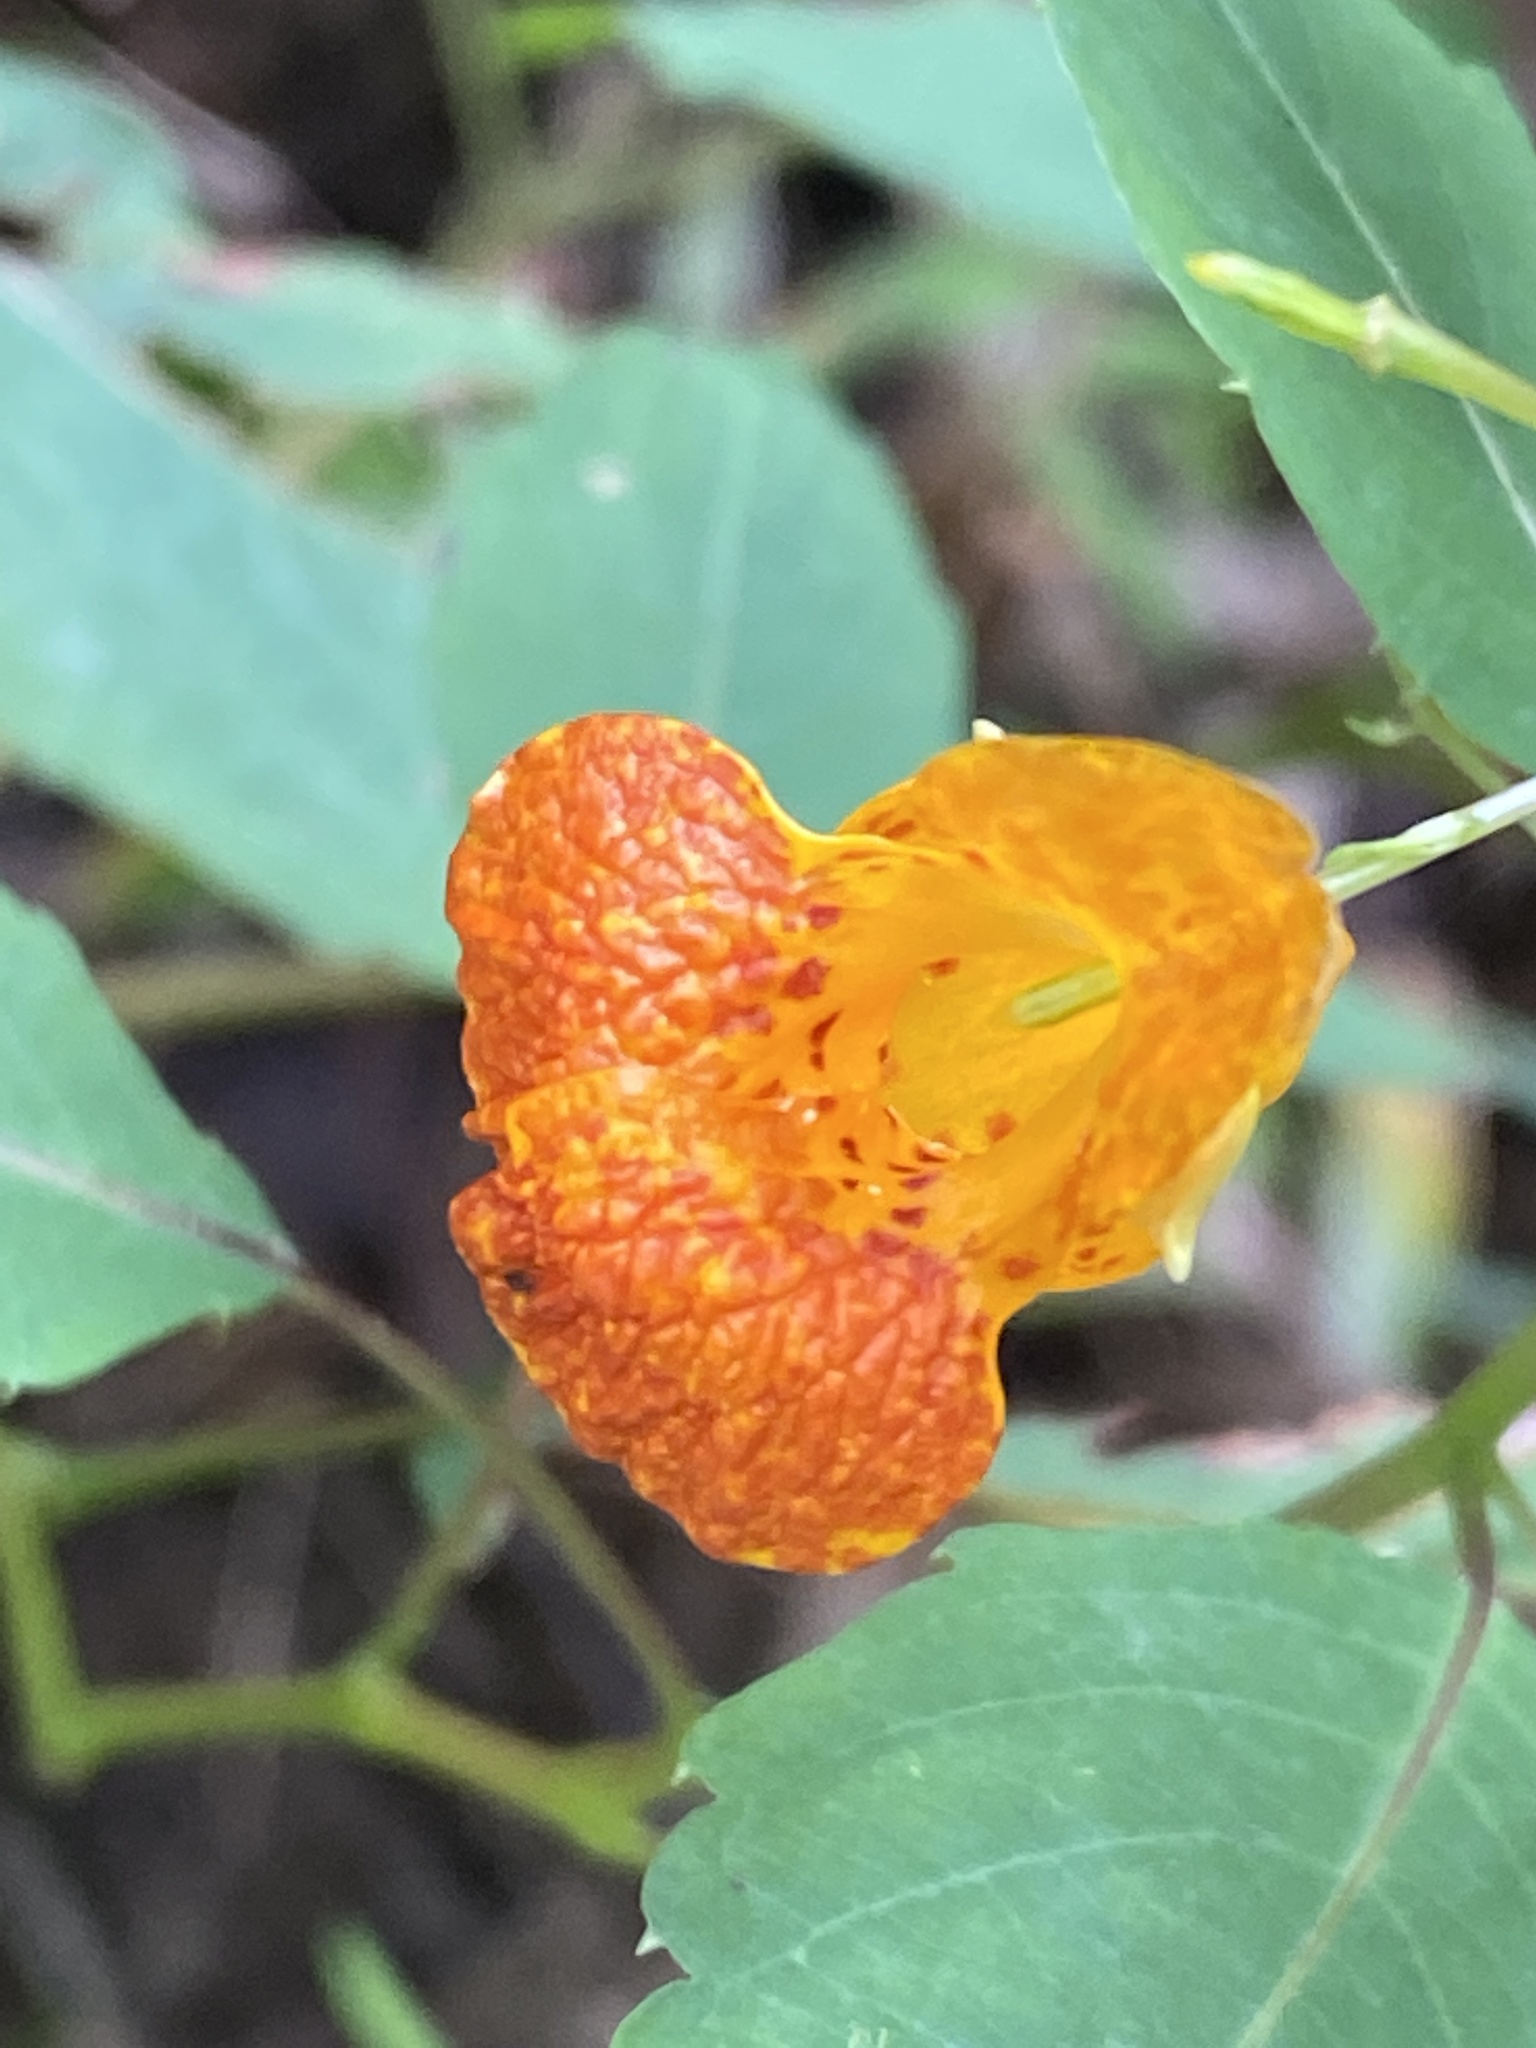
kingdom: Plantae
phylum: Tracheophyta
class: Magnoliopsida
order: Ericales
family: Balsaminaceae
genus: Impatiens
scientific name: Impatiens capensis
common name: Orange balsam
